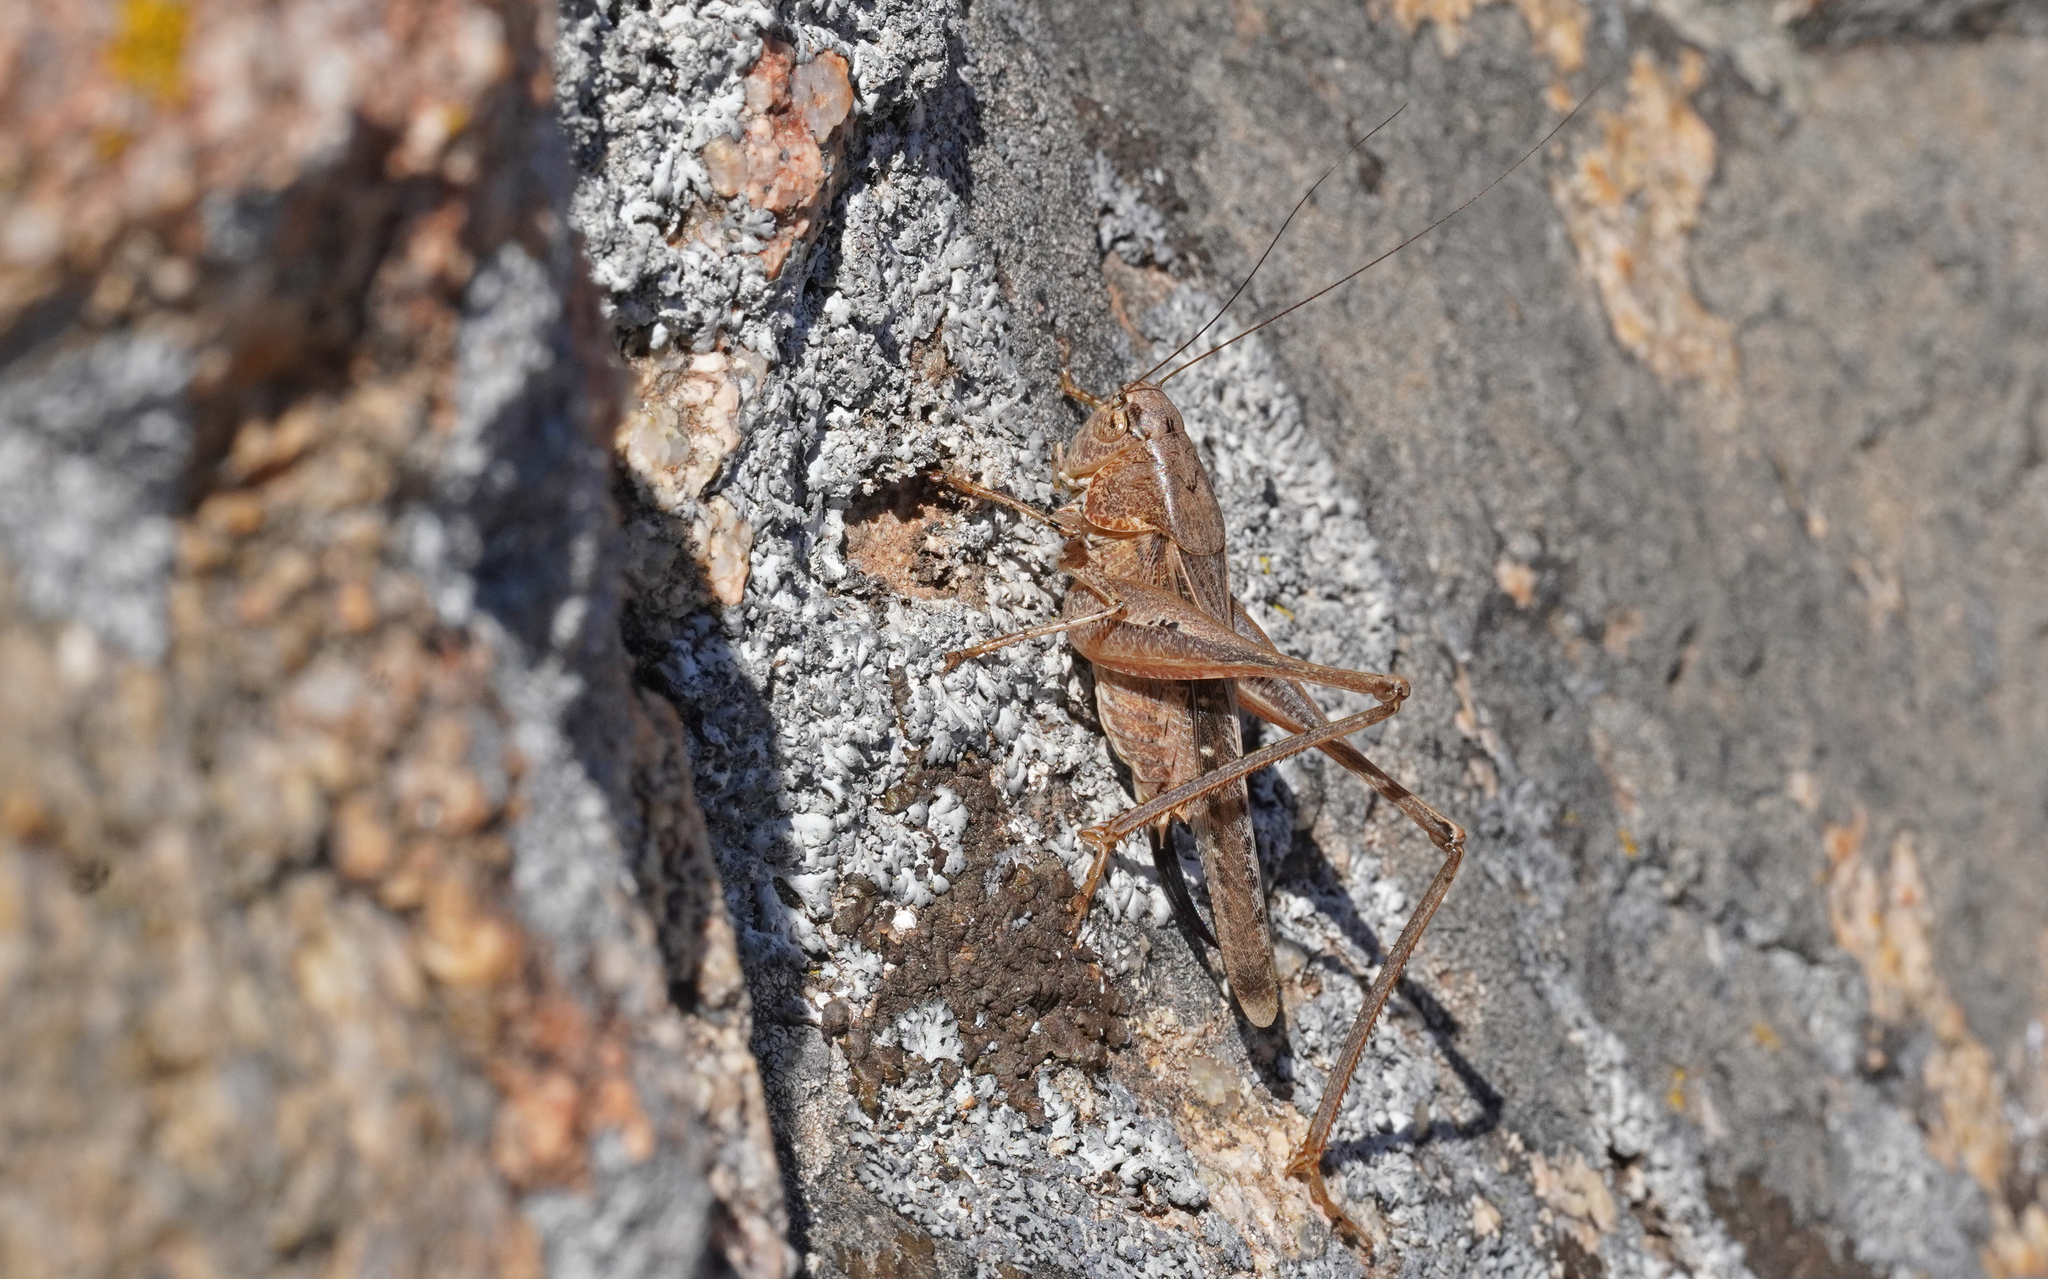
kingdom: Animalia
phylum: Arthropoda
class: Insecta
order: Orthoptera
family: Tettigoniidae
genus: Platycleis
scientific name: Platycleis intermedia
